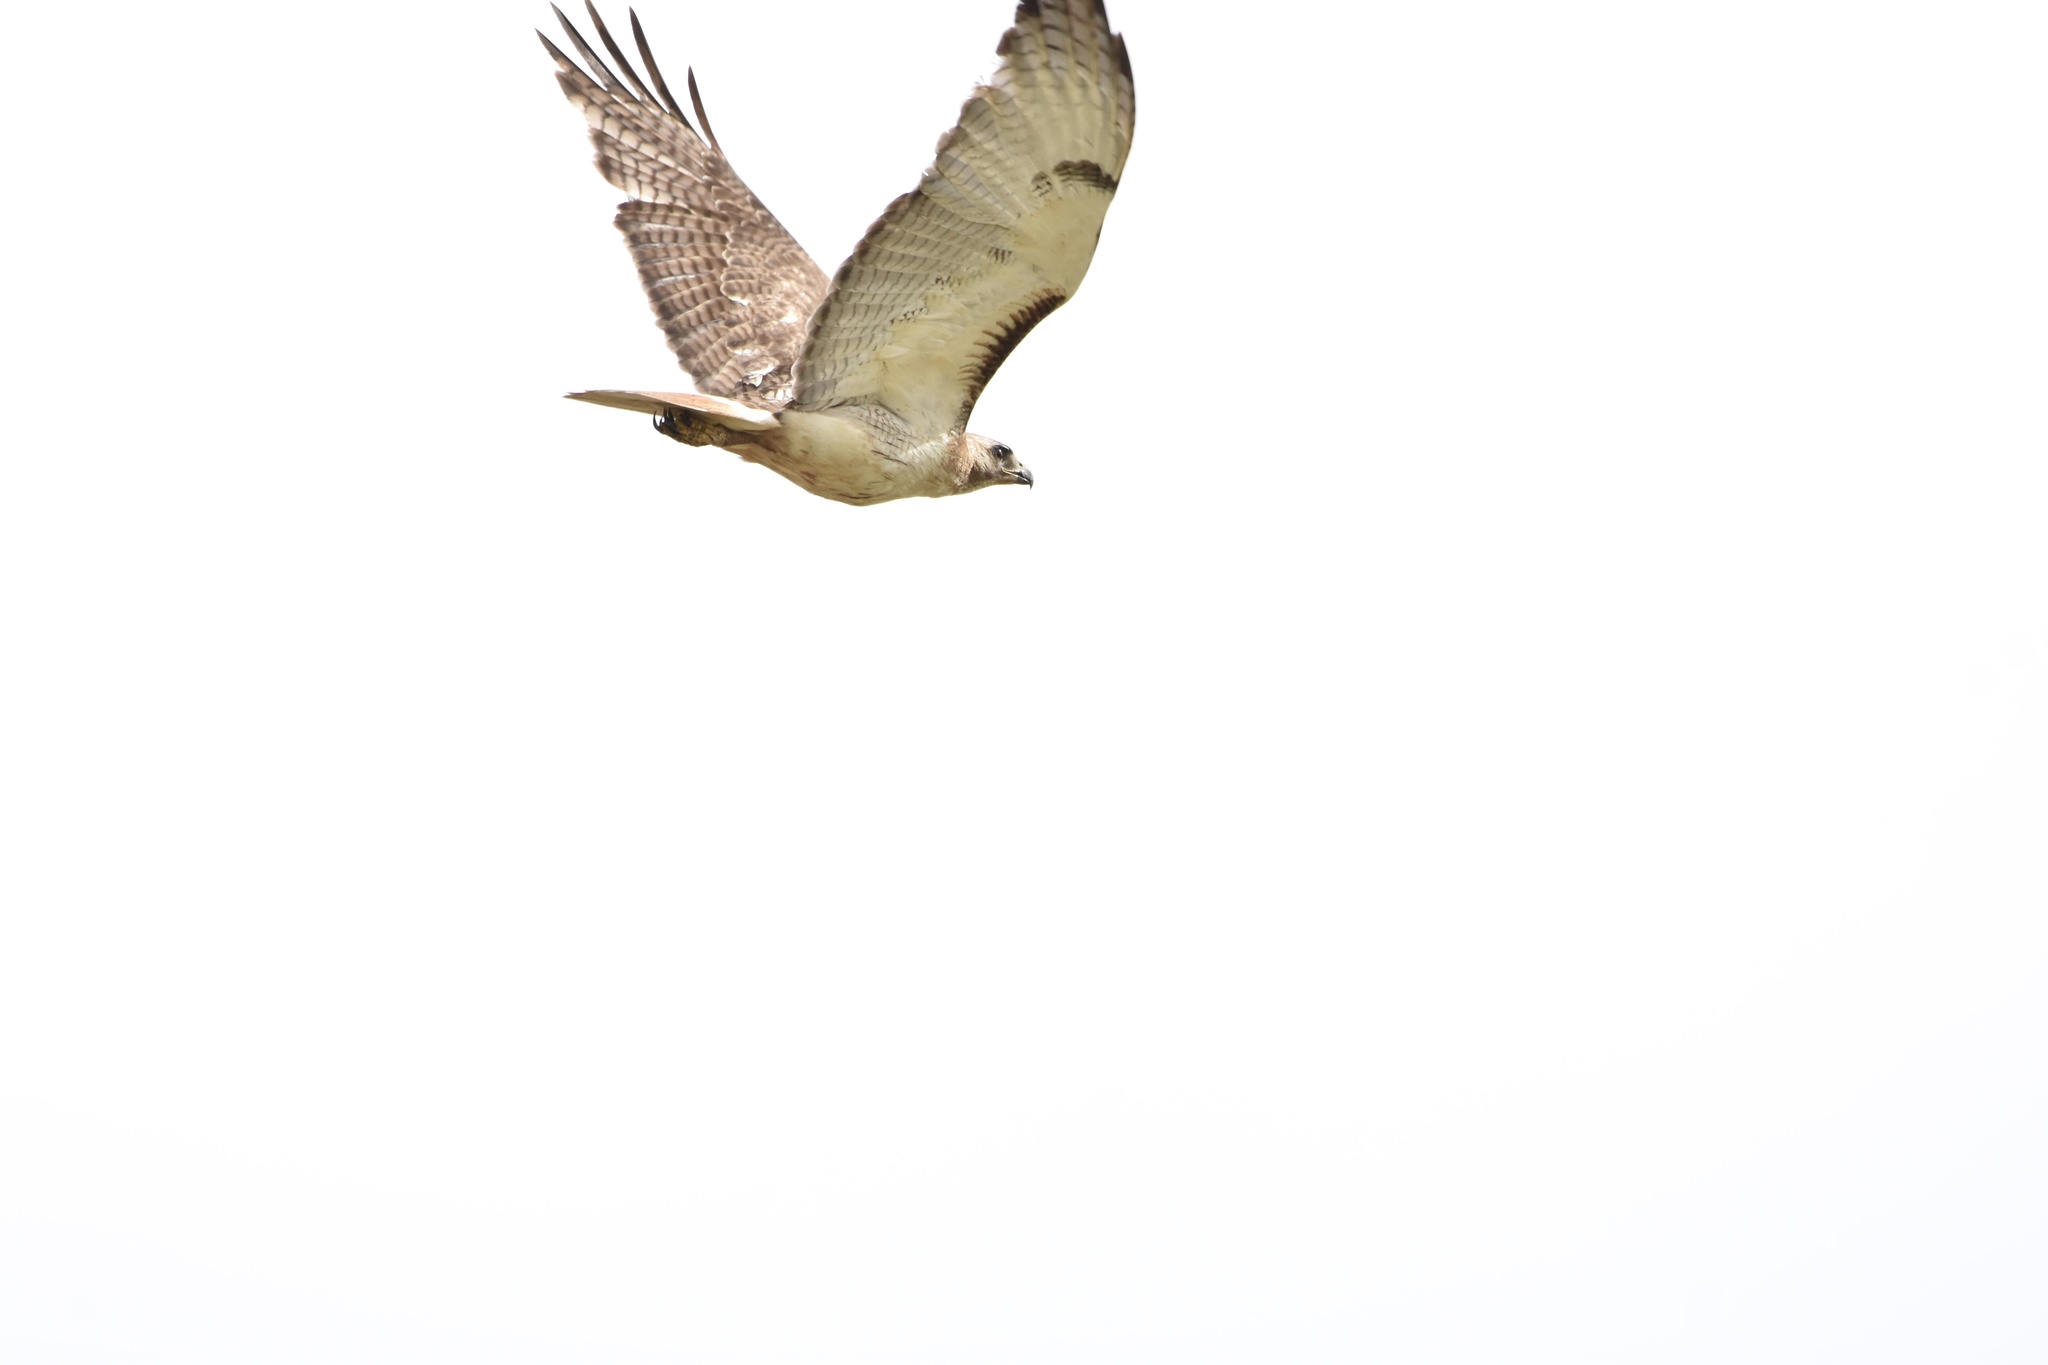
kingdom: Animalia
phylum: Chordata
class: Aves
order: Accipitriformes
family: Accipitridae
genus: Buteo
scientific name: Buteo jamaicensis
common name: Red-tailed hawk
